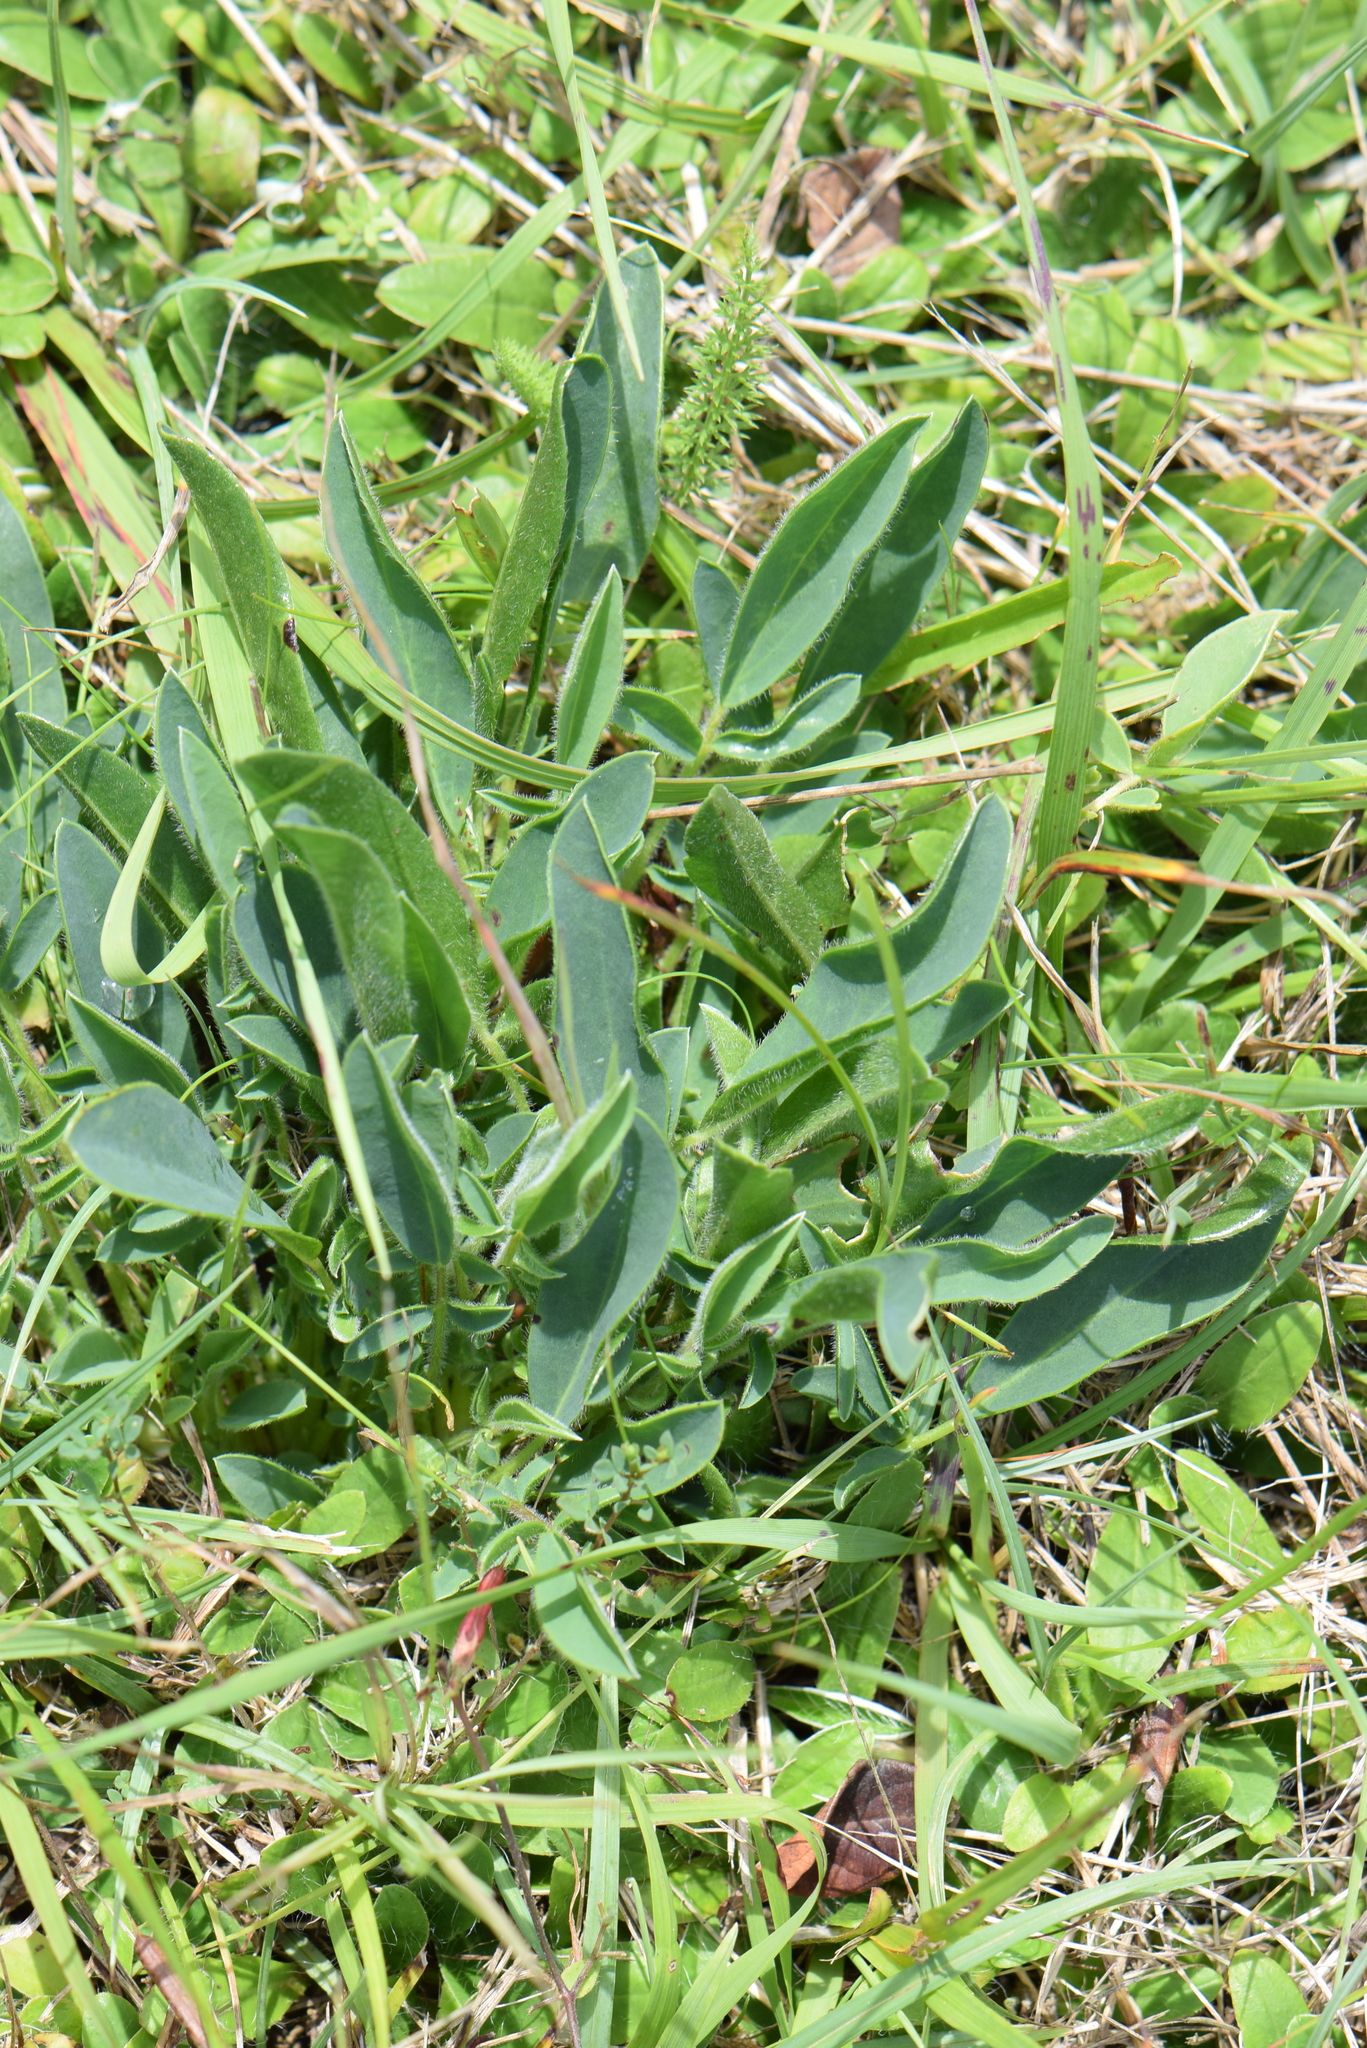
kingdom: Plantae
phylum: Tracheophyta
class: Magnoliopsida
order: Fabales
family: Fabaceae
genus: Anthyllis
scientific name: Anthyllis vulneraria
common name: Kidney vetch
